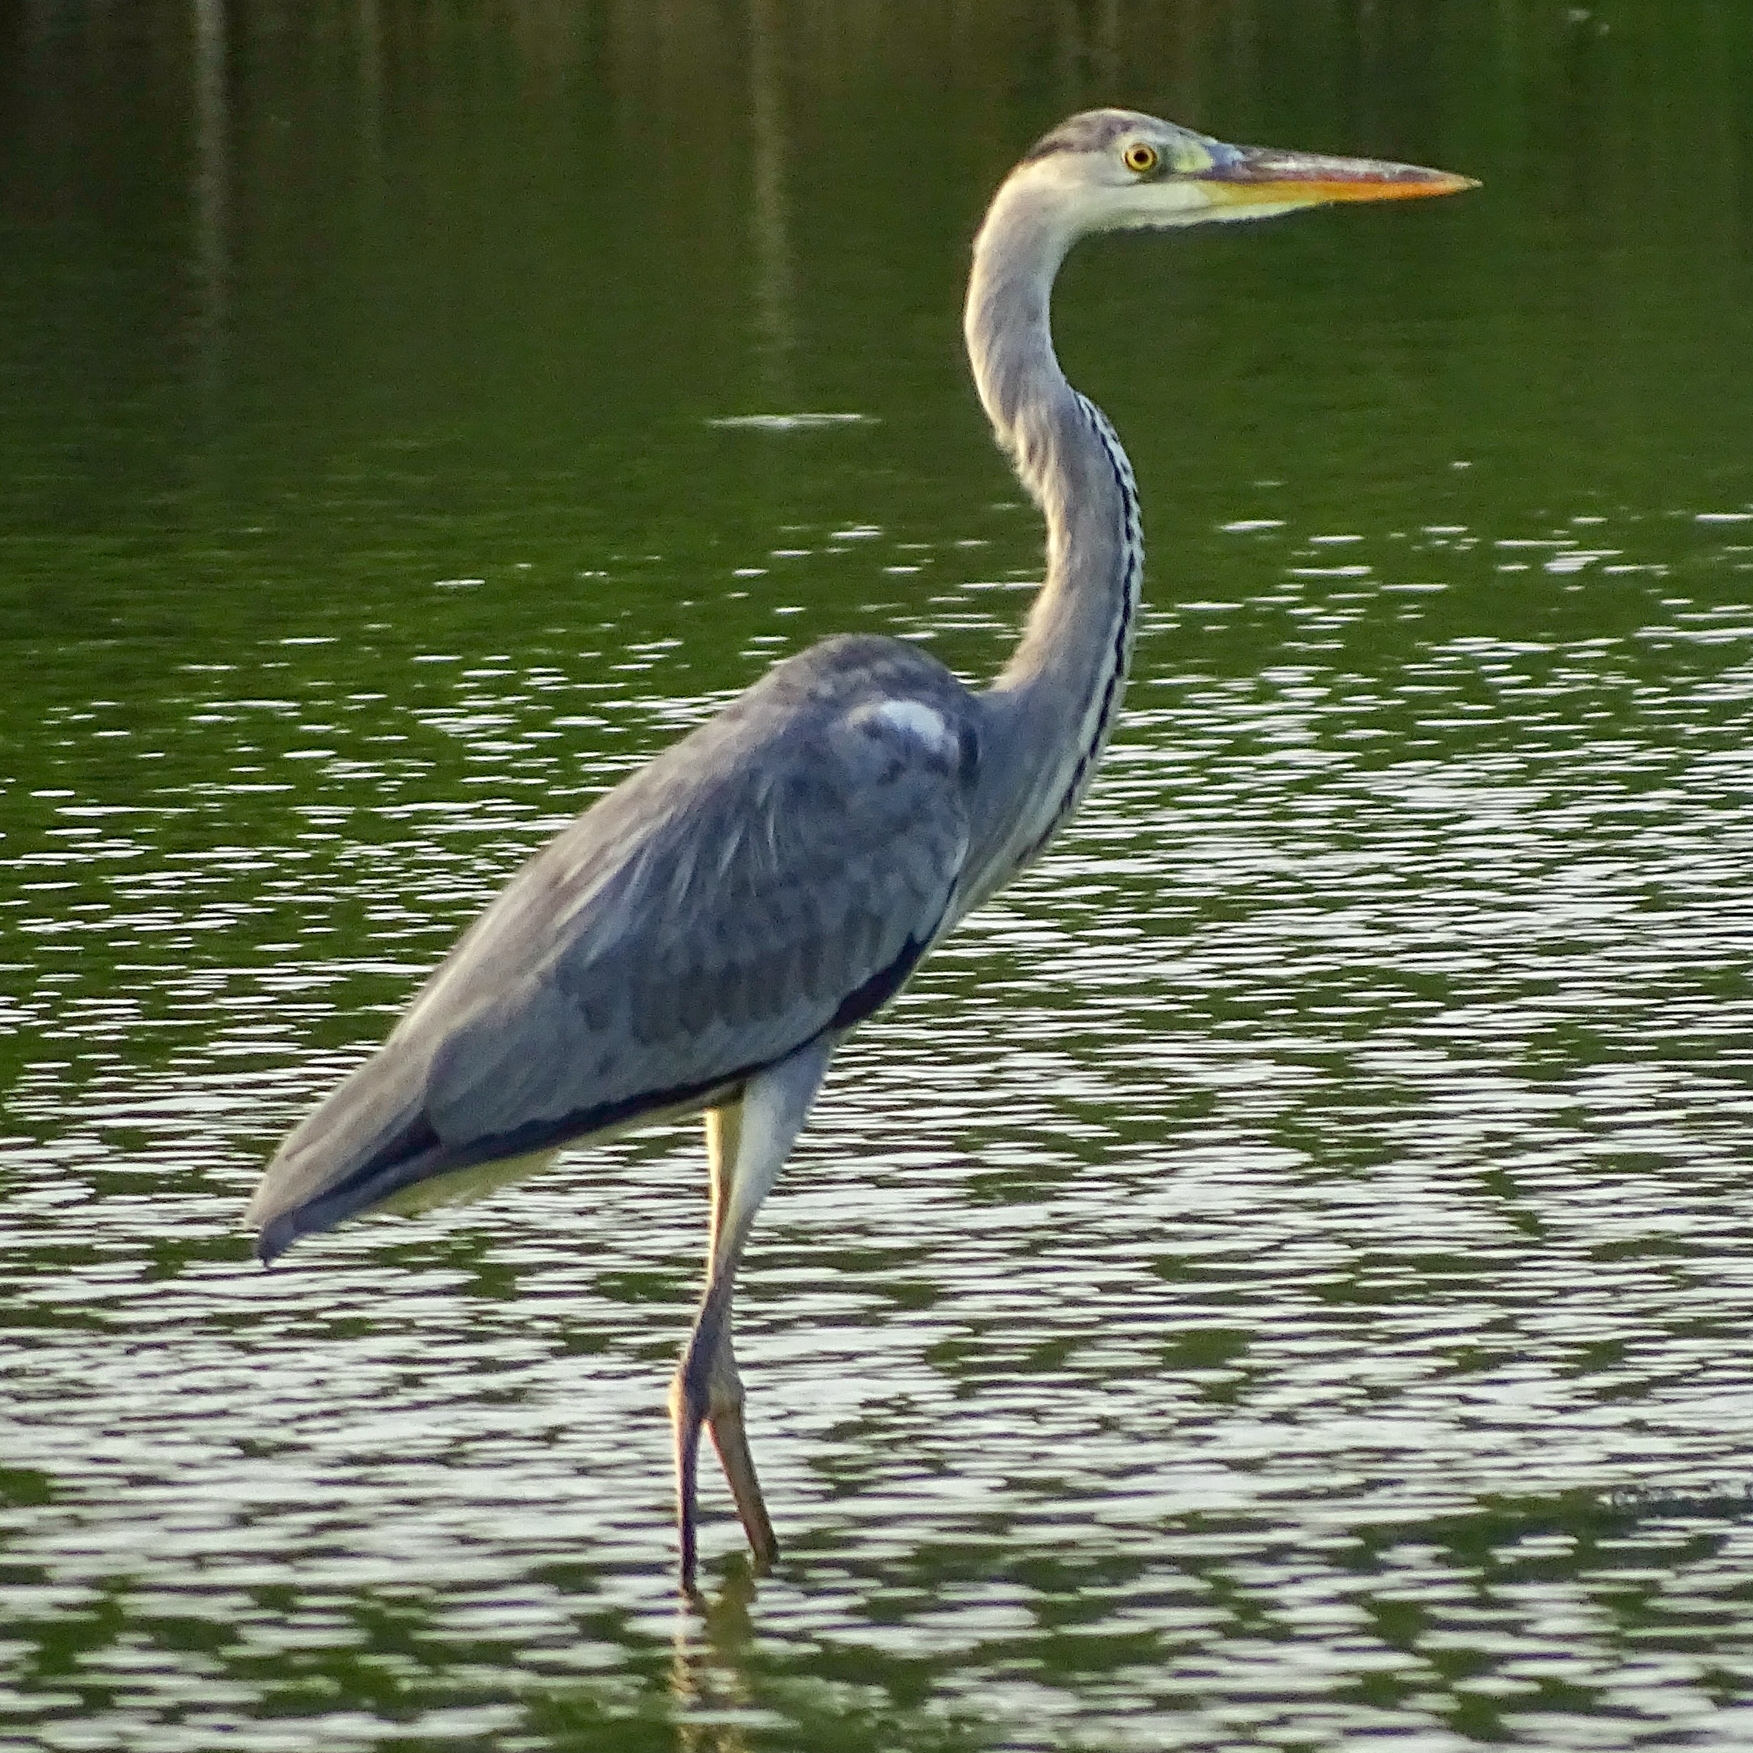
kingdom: Animalia
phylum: Chordata
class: Aves
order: Pelecaniformes
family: Ardeidae
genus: Ardea
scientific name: Ardea cinerea
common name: Grey heron
